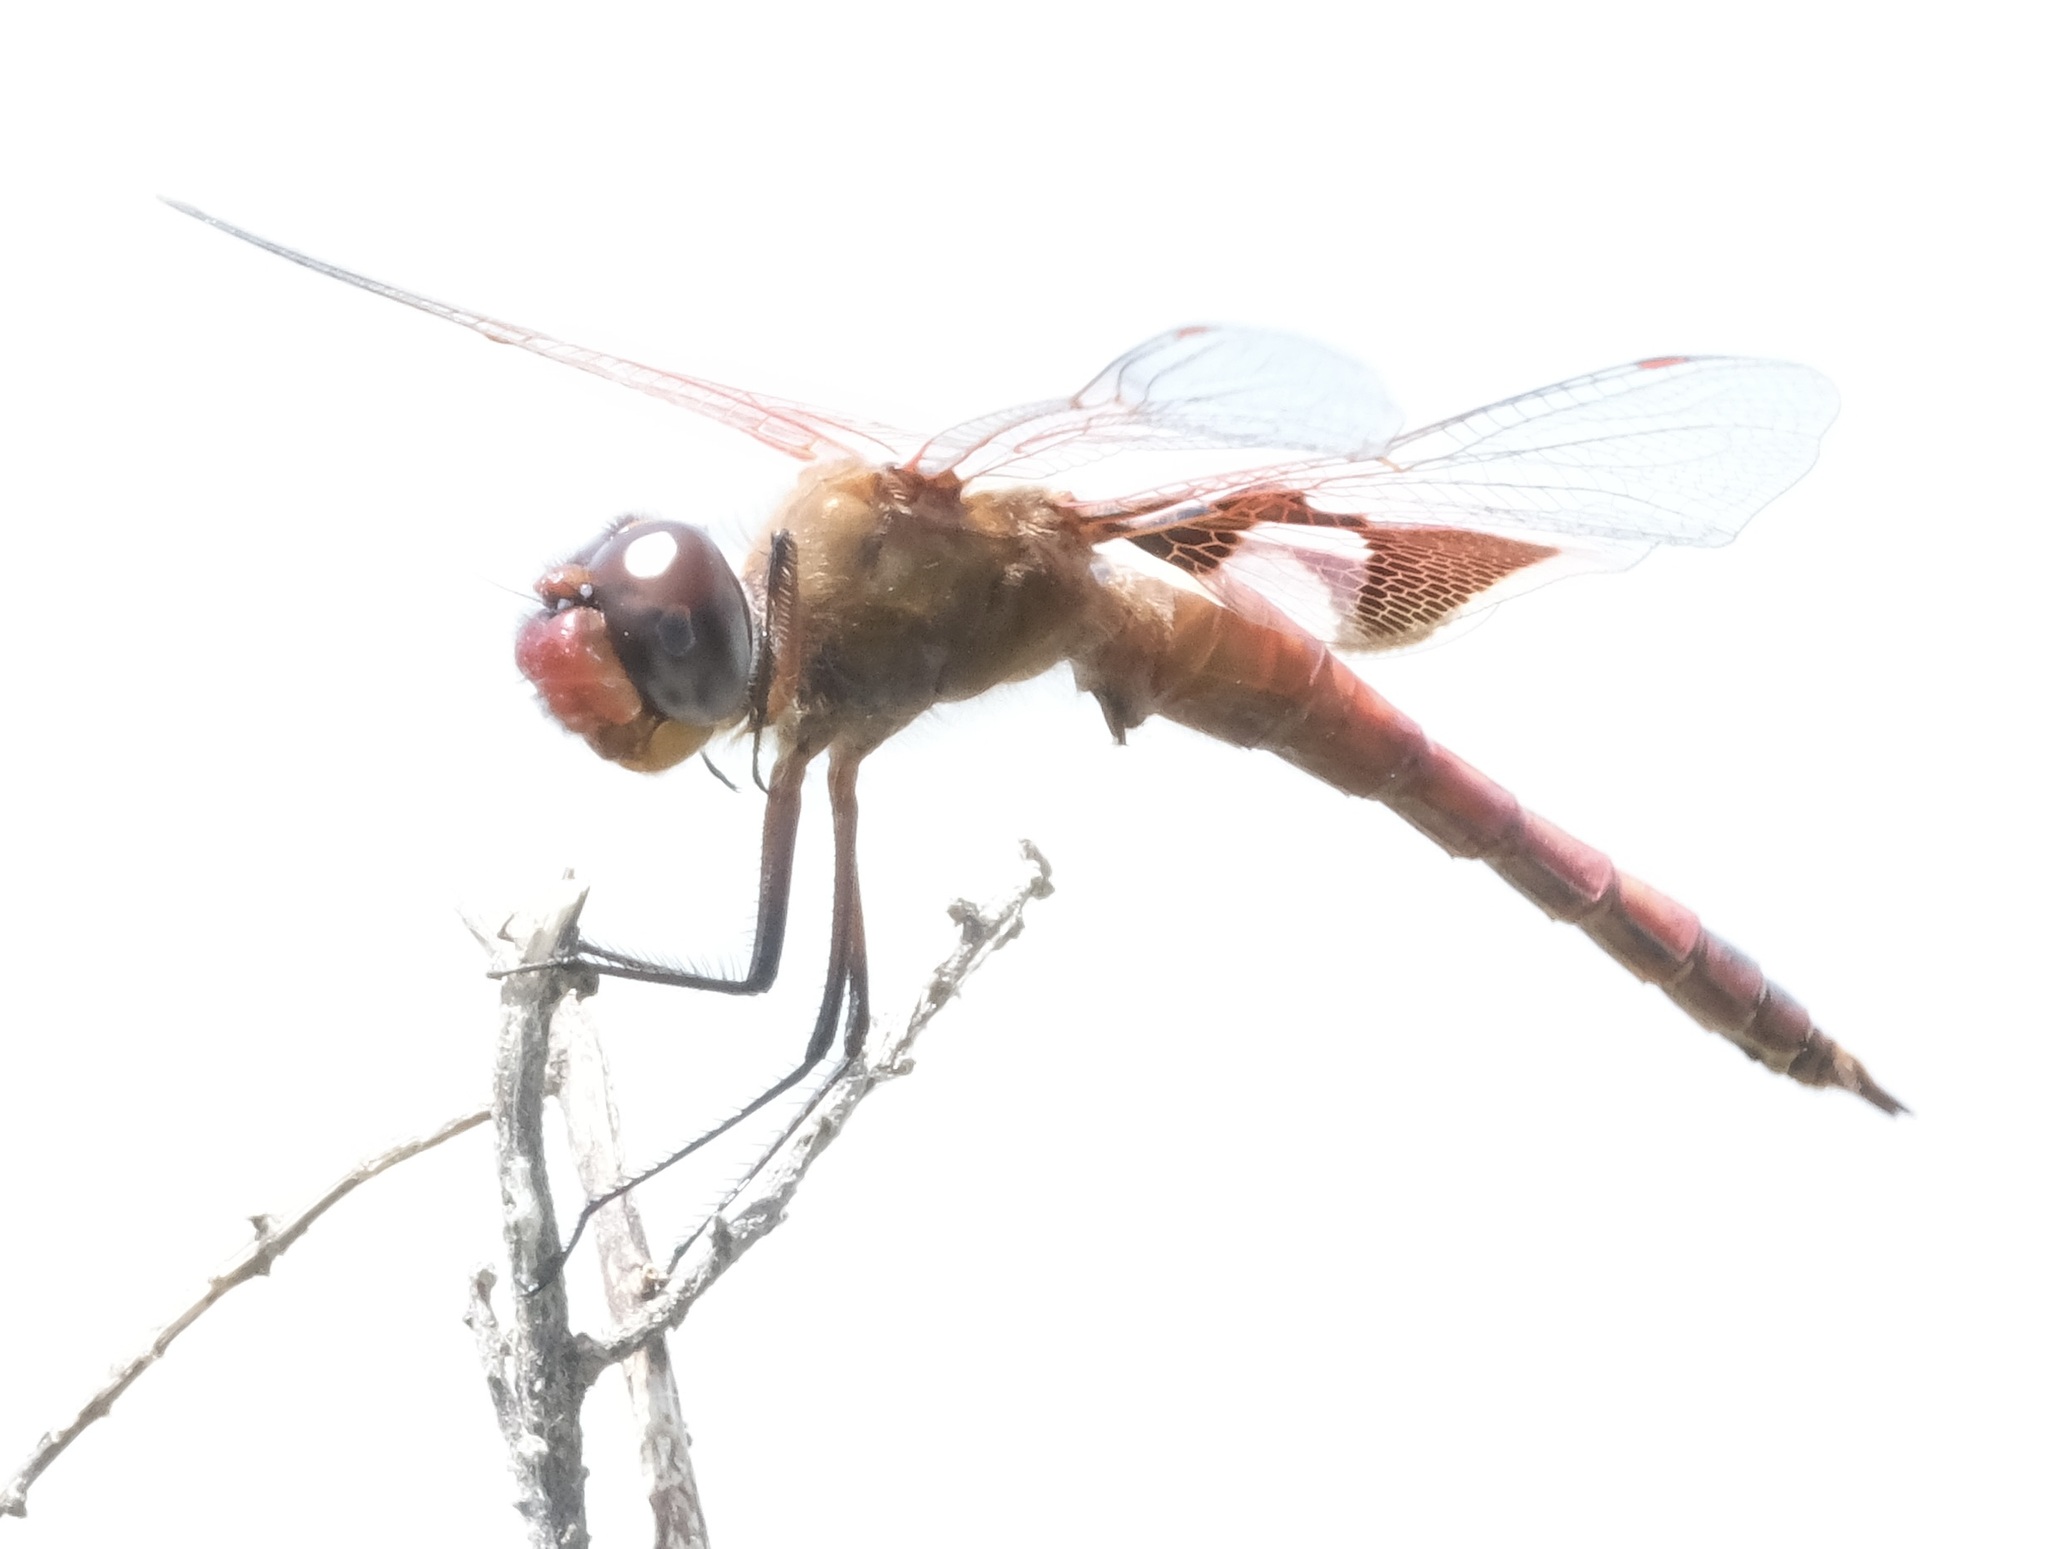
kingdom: Animalia
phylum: Arthropoda
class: Insecta
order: Odonata
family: Libellulidae
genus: Tramea
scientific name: Tramea onusta
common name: Red saddlebags
